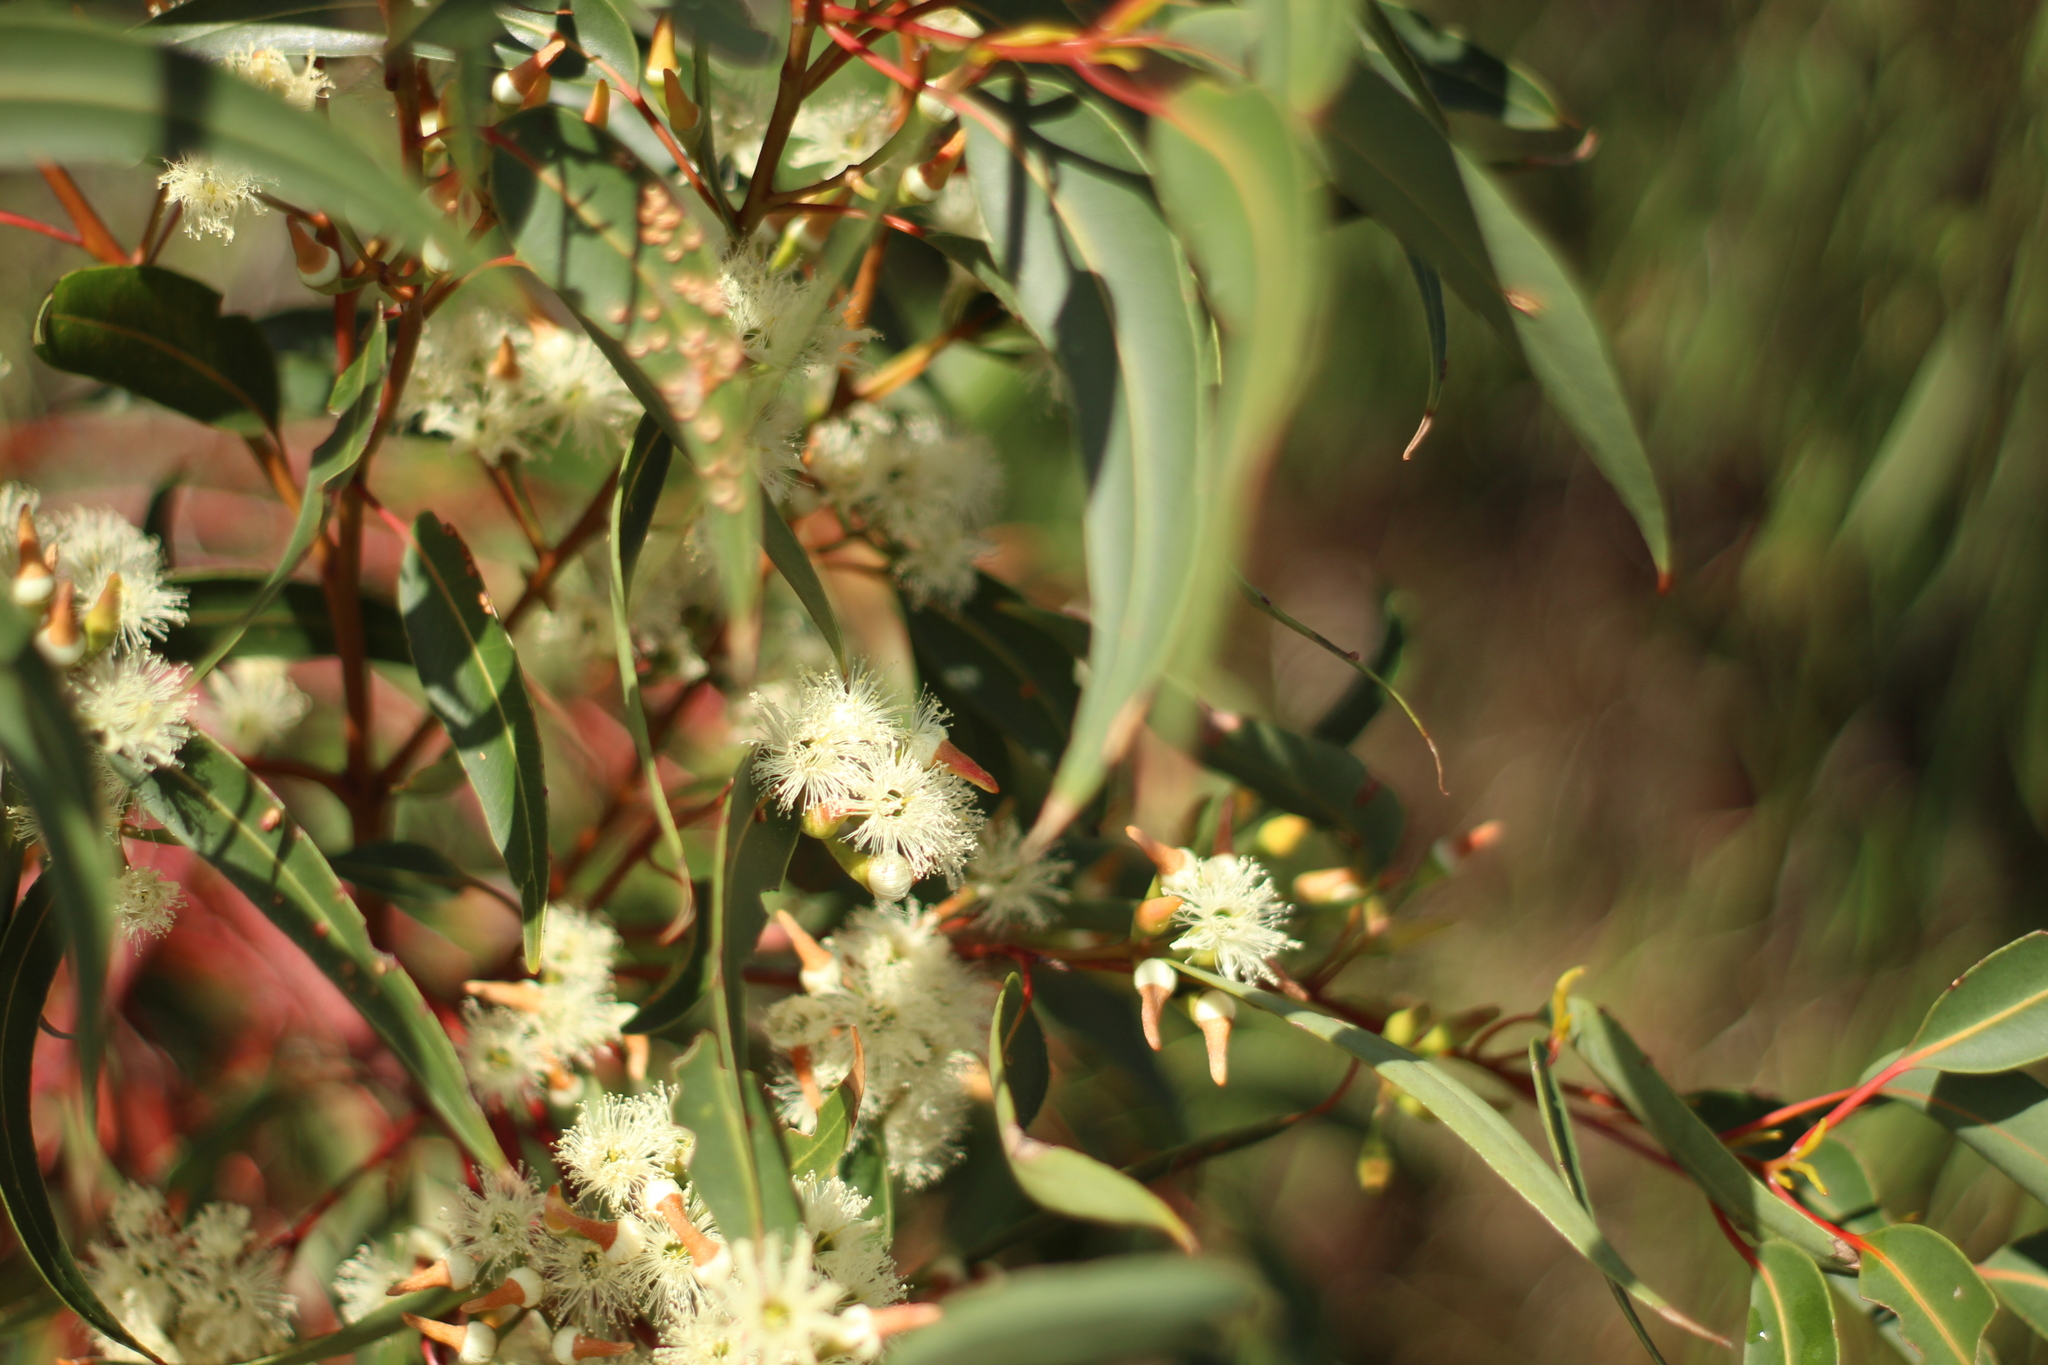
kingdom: Plantae
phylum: Tracheophyta
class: Magnoliopsida
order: Myrtales
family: Myrtaceae
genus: Eucalyptus
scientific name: Eucalyptus marginata
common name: Jarrah
